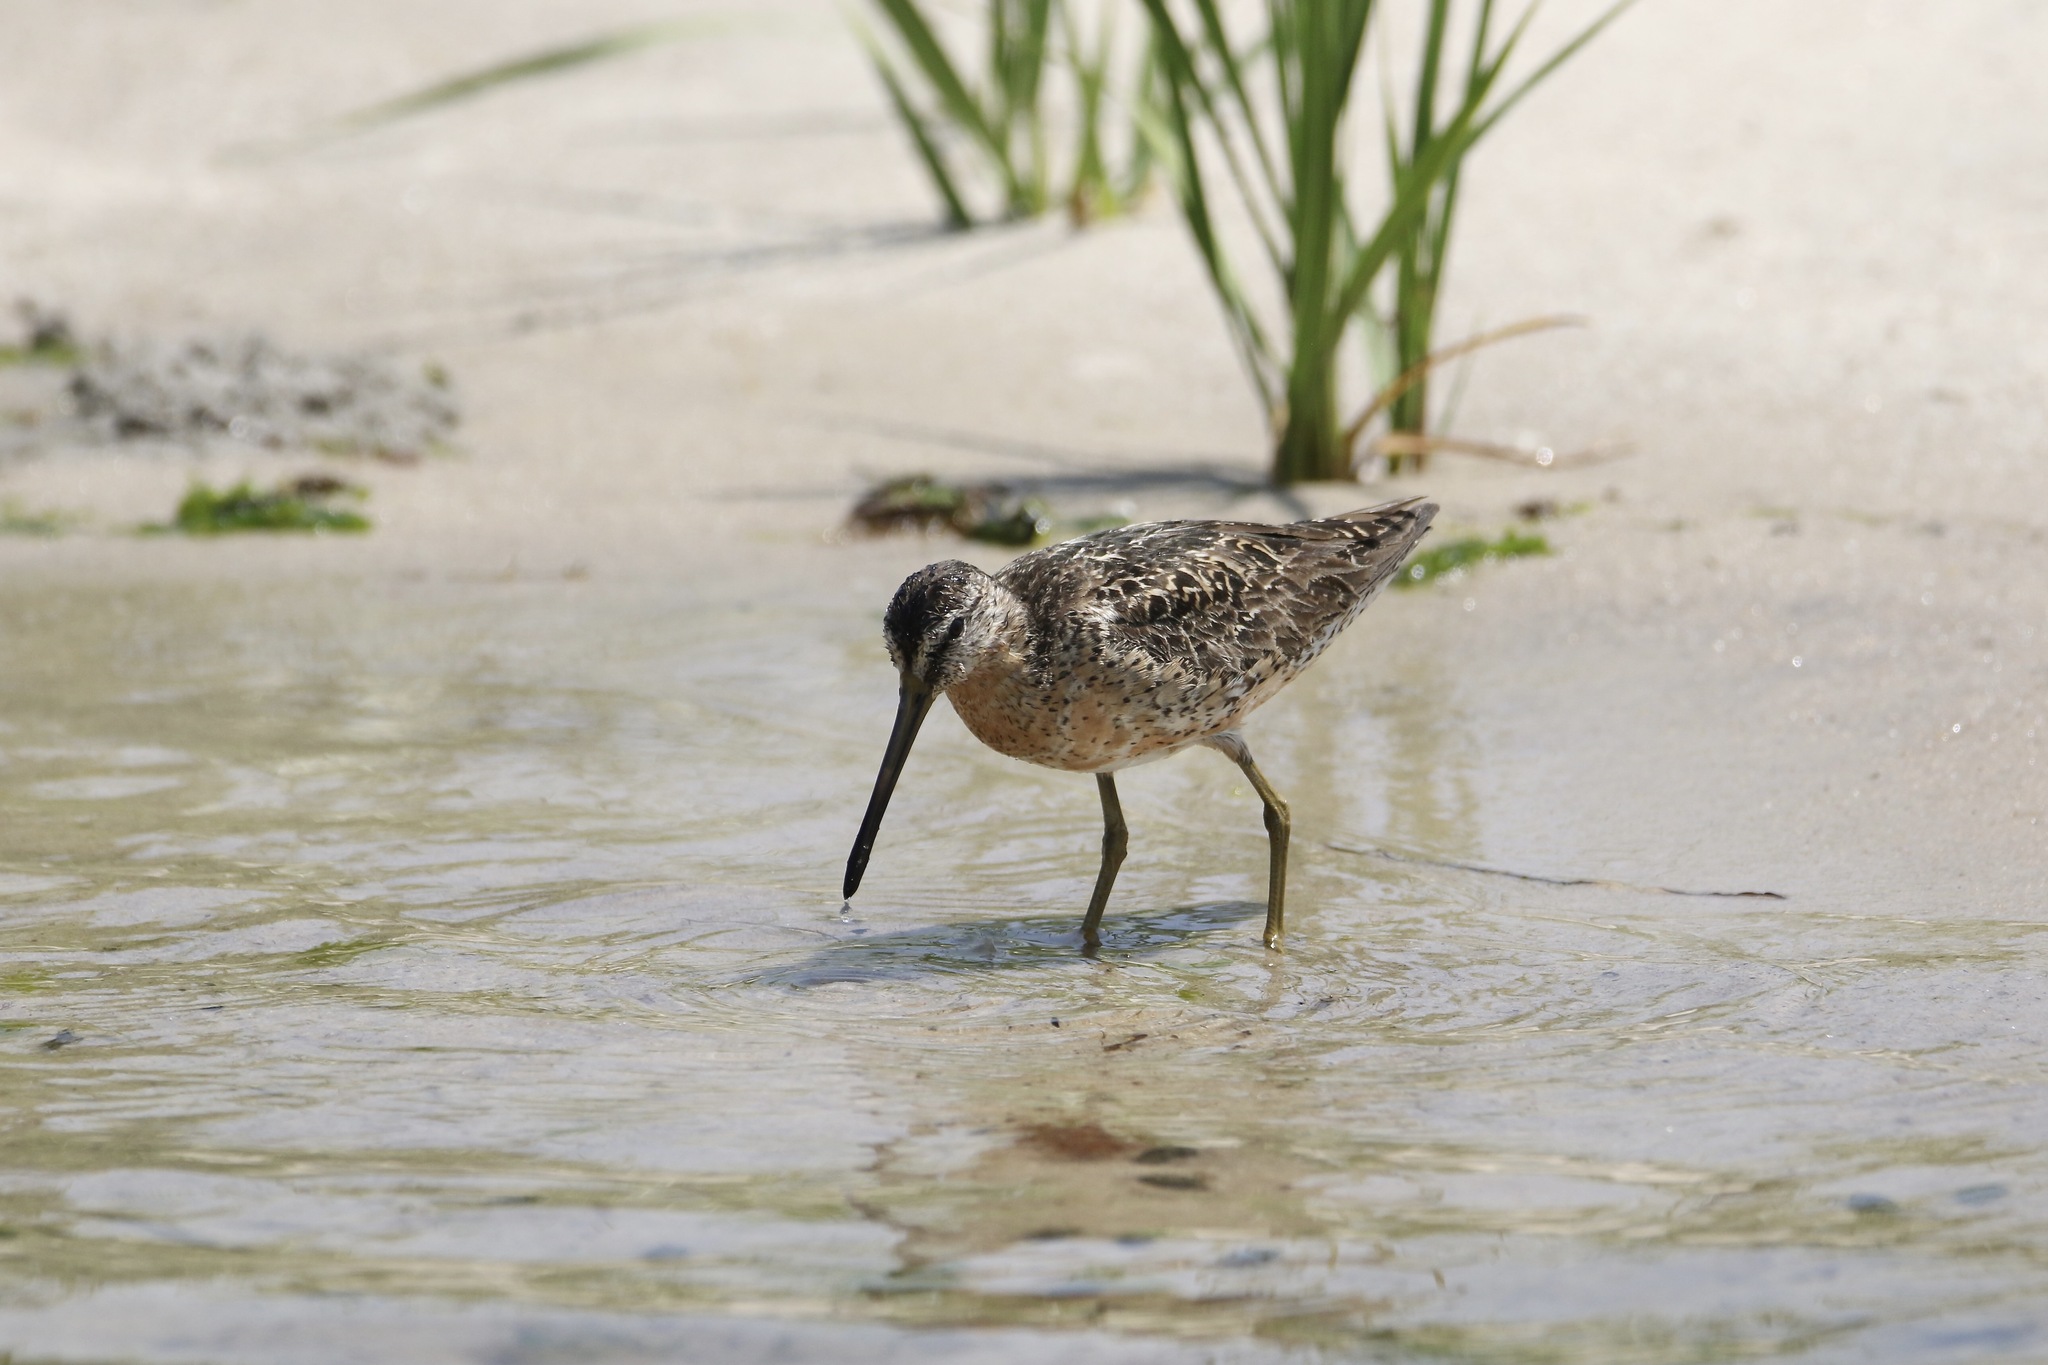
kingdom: Animalia
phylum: Chordata
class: Aves
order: Charadriiformes
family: Scolopacidae
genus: Limnodromus
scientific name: Limnodromus griseus
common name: Short-billed dowitcher
